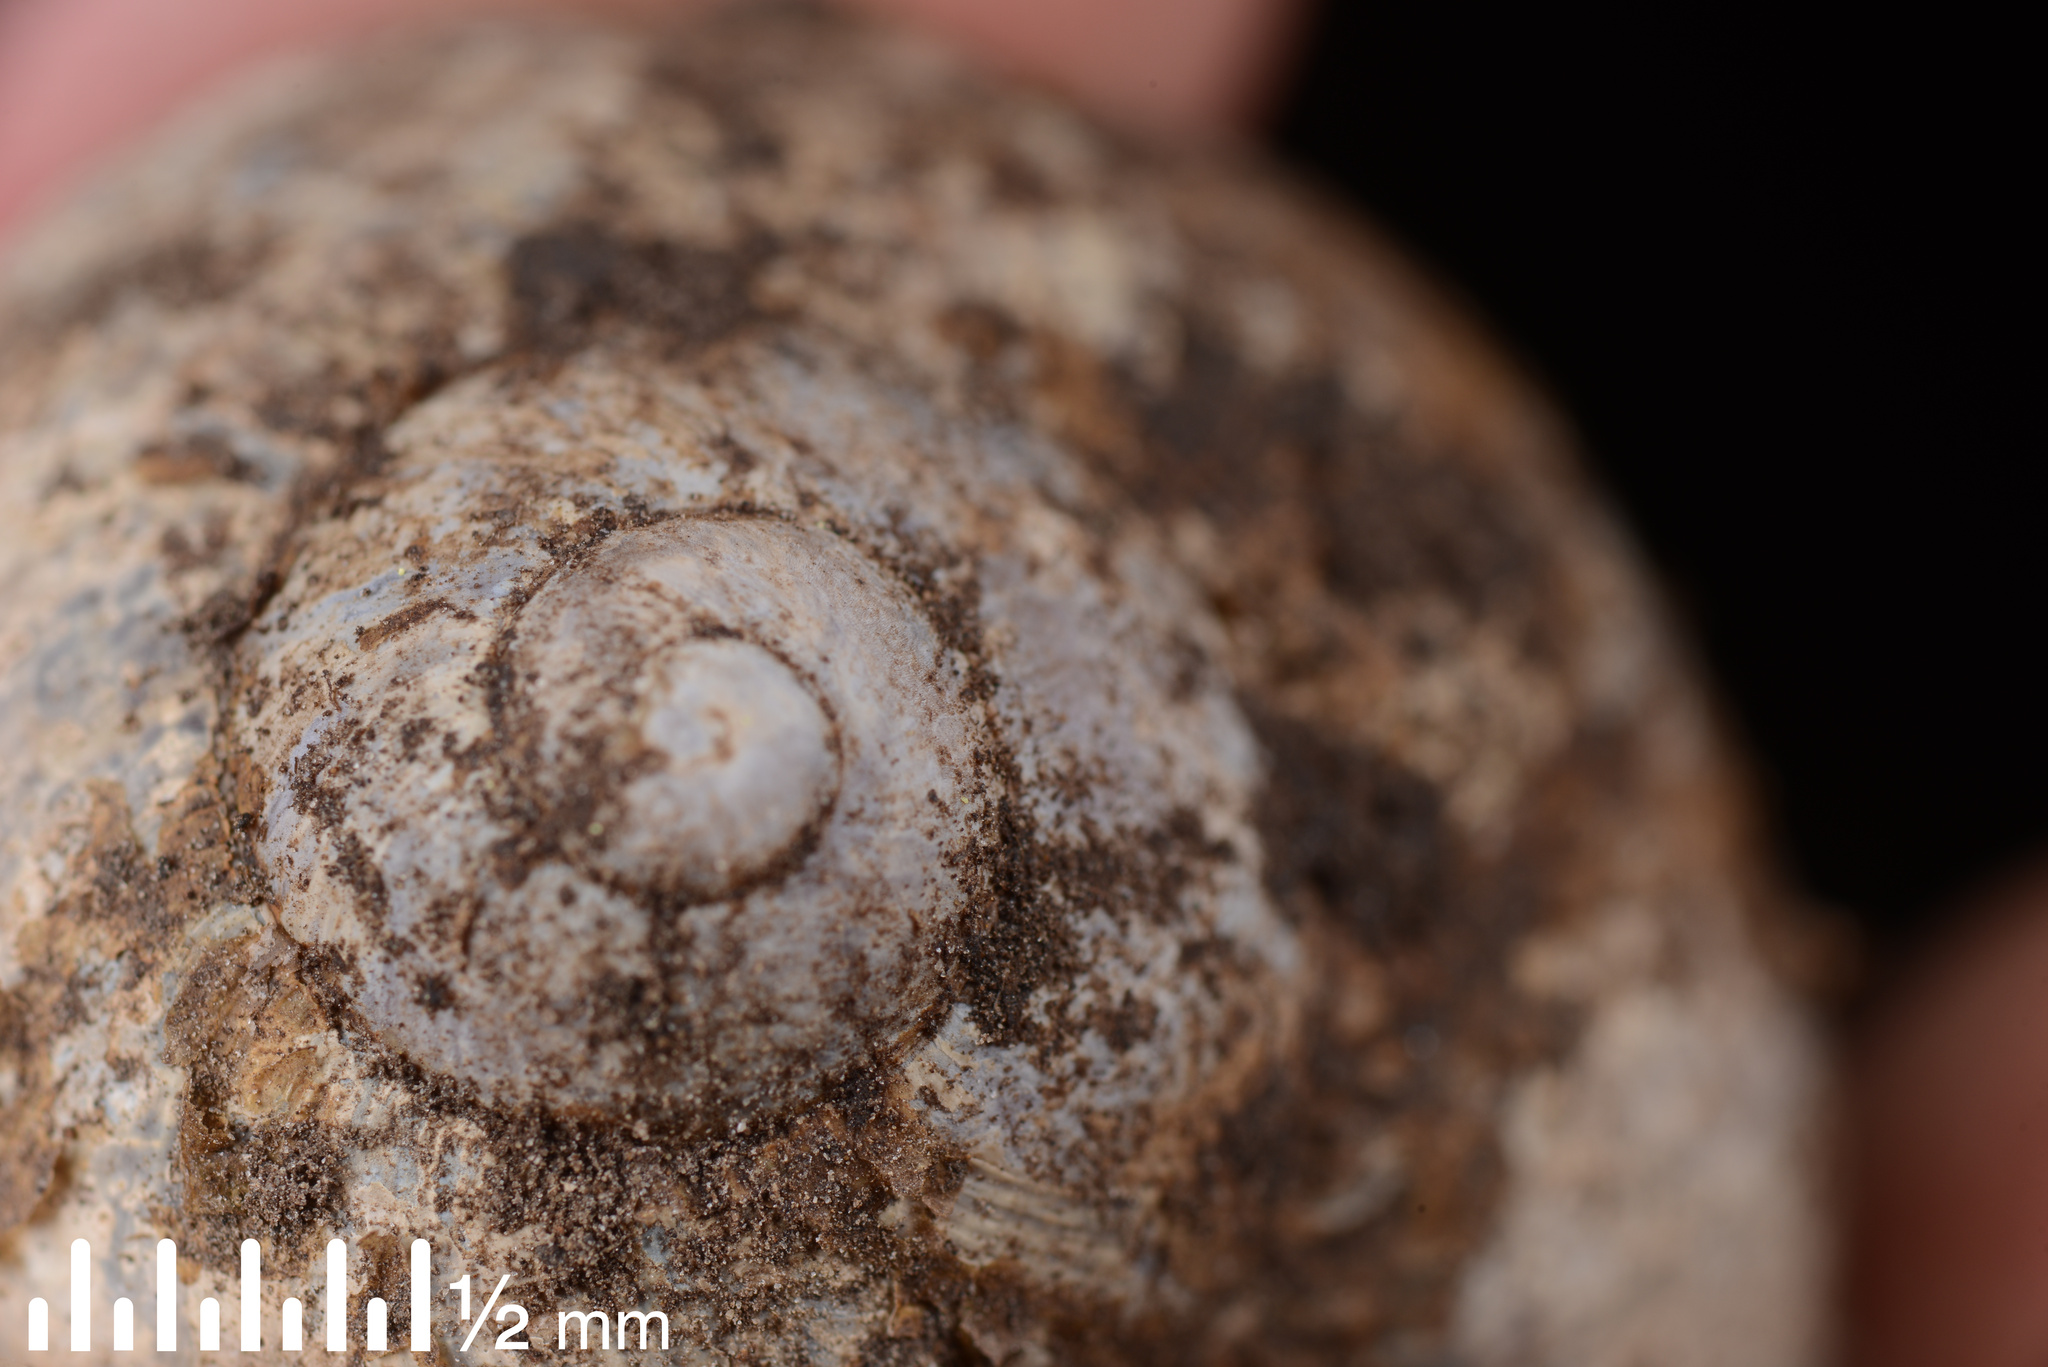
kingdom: Animalia
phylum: Mollusca
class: Gastropoda
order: Stylommatophora
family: Helicidae
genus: Cornu
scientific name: Cornu aspersum
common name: Brown garden snail
